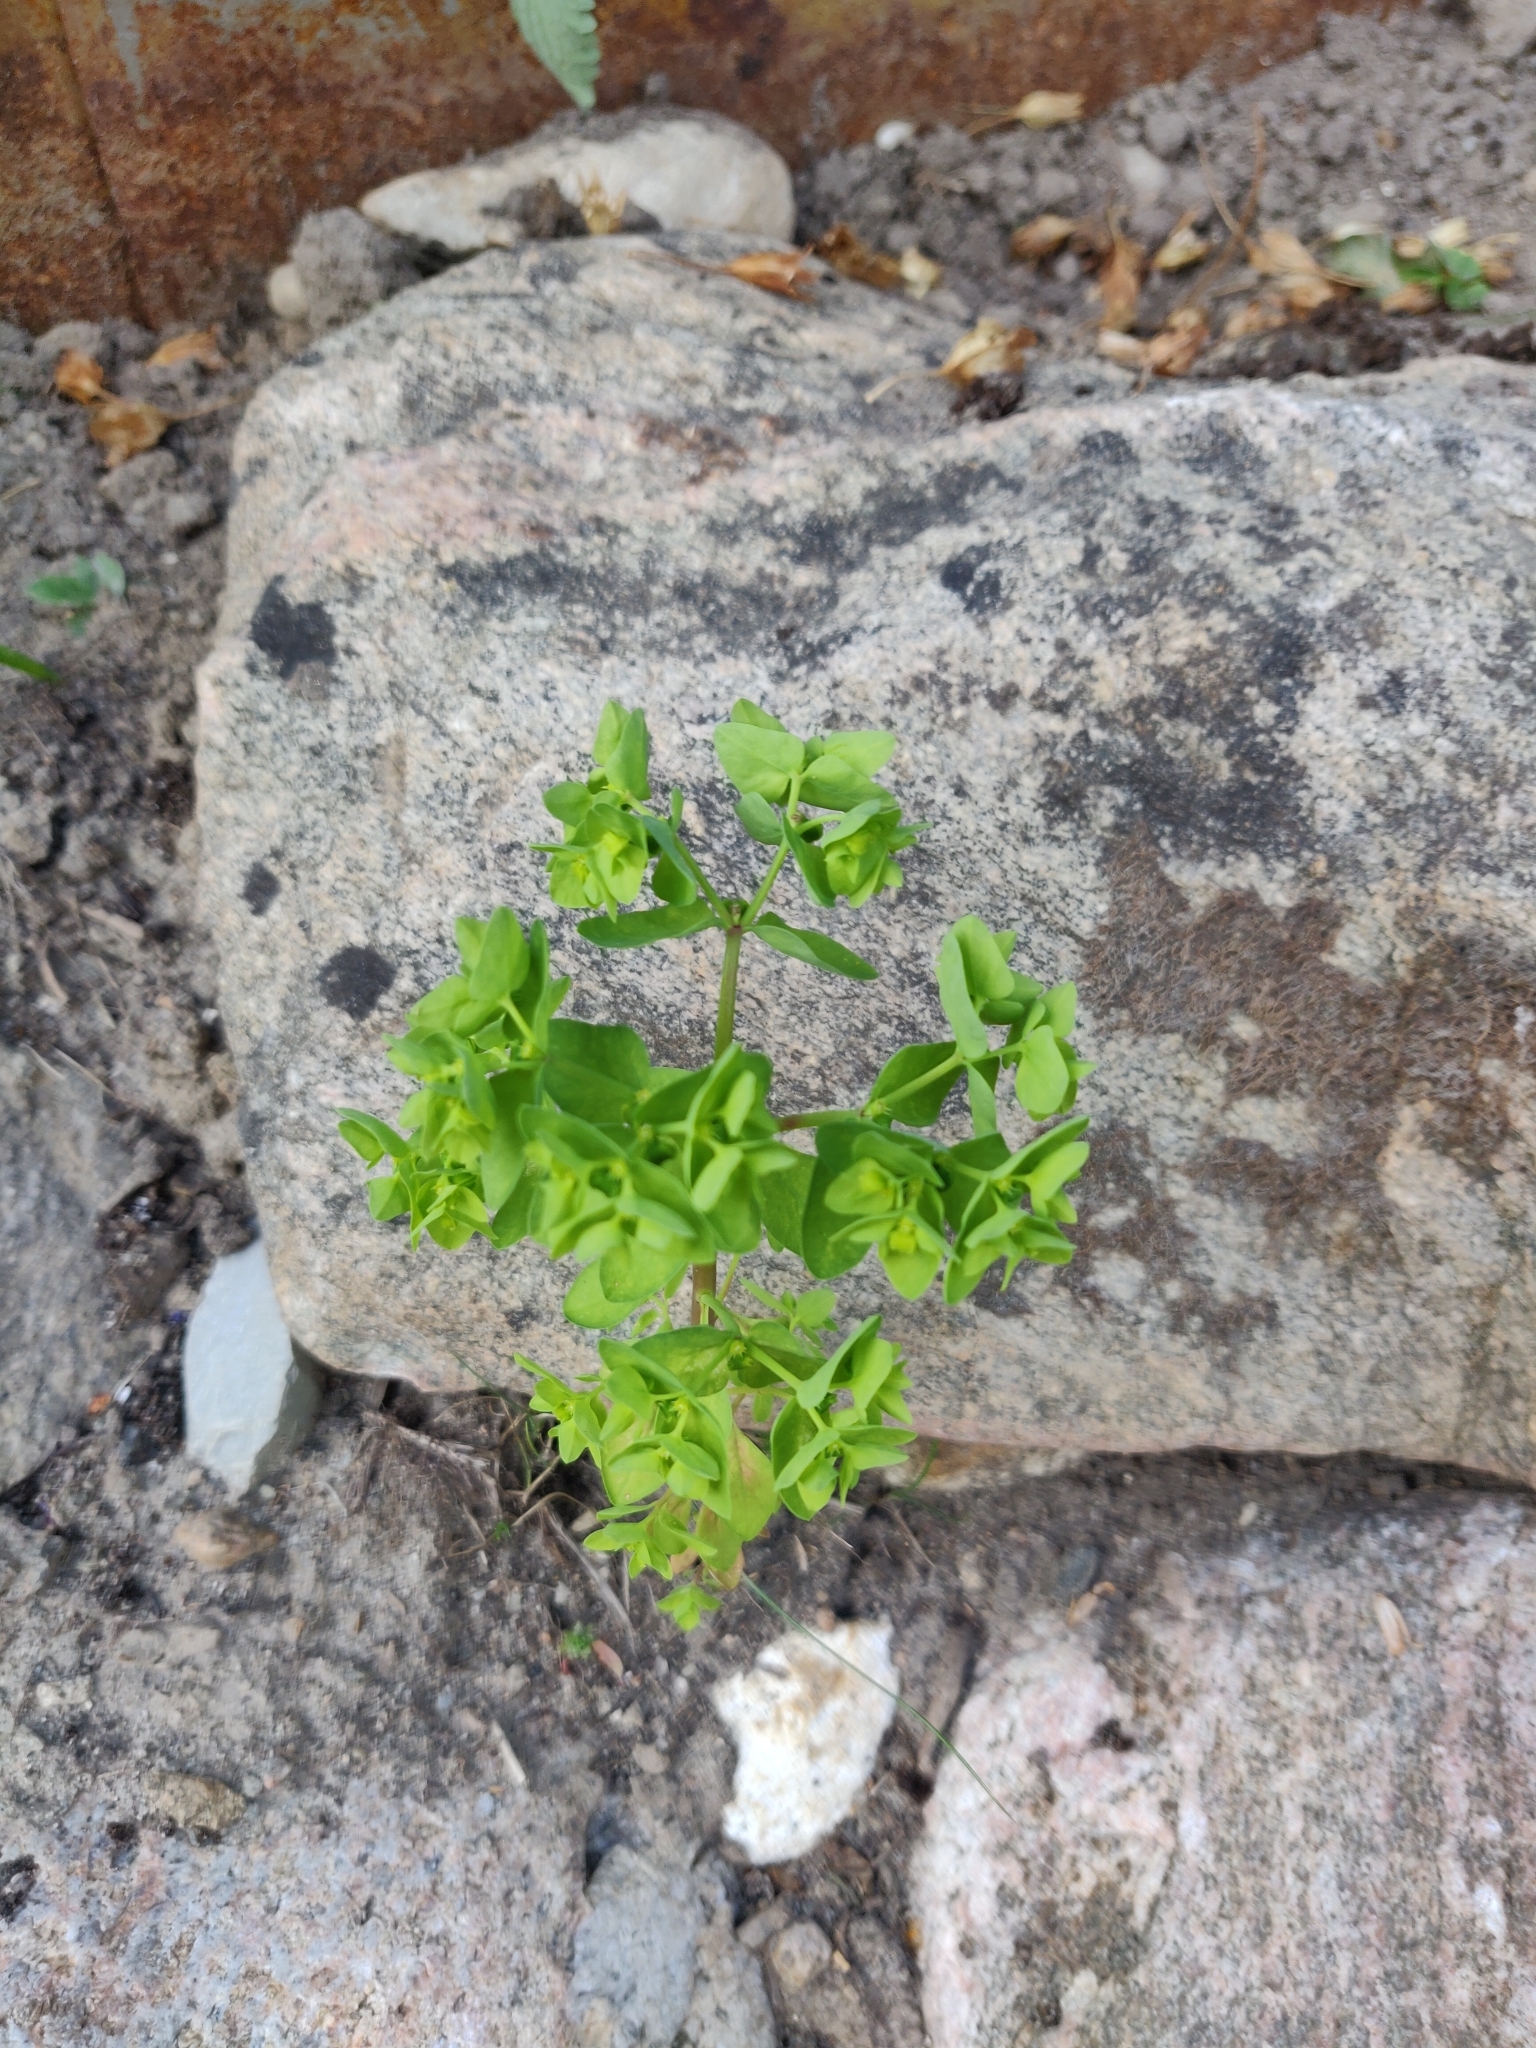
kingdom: Plantae
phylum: Tracheophyta
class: Magnoliopsida
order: Malpighiales
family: Euphorbiaceae
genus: Euphorbia
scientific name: Euphorbia peplus
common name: Petty spurge
